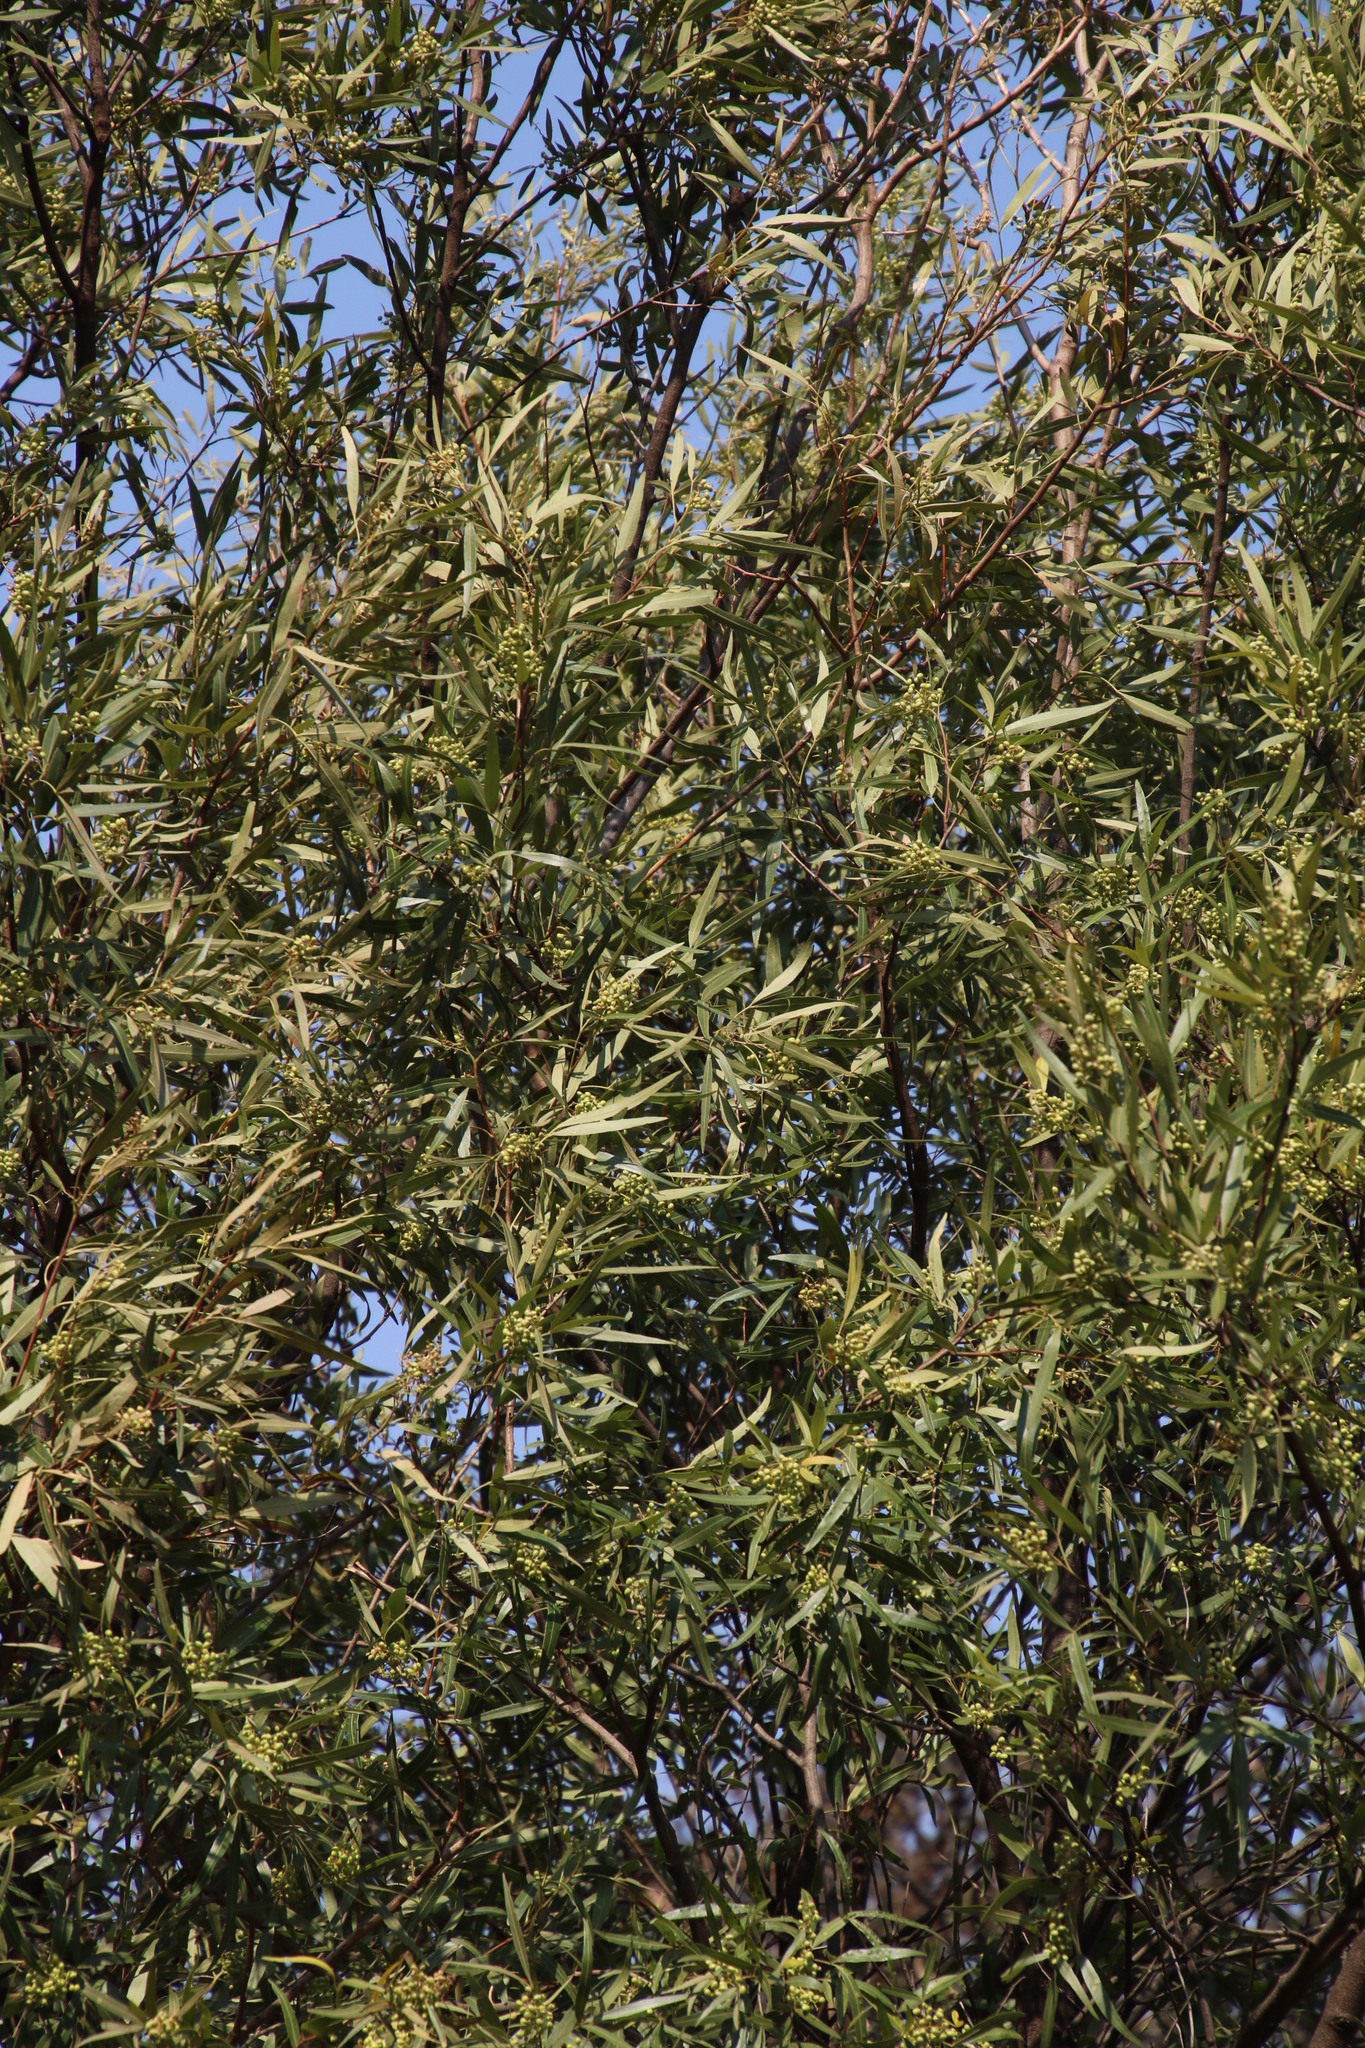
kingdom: Plantae
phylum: Tracheophyta
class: Magnoliopsida
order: Sapindales
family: Anacardiaceae
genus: Searsia
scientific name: Searsia lancea
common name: Cashew
